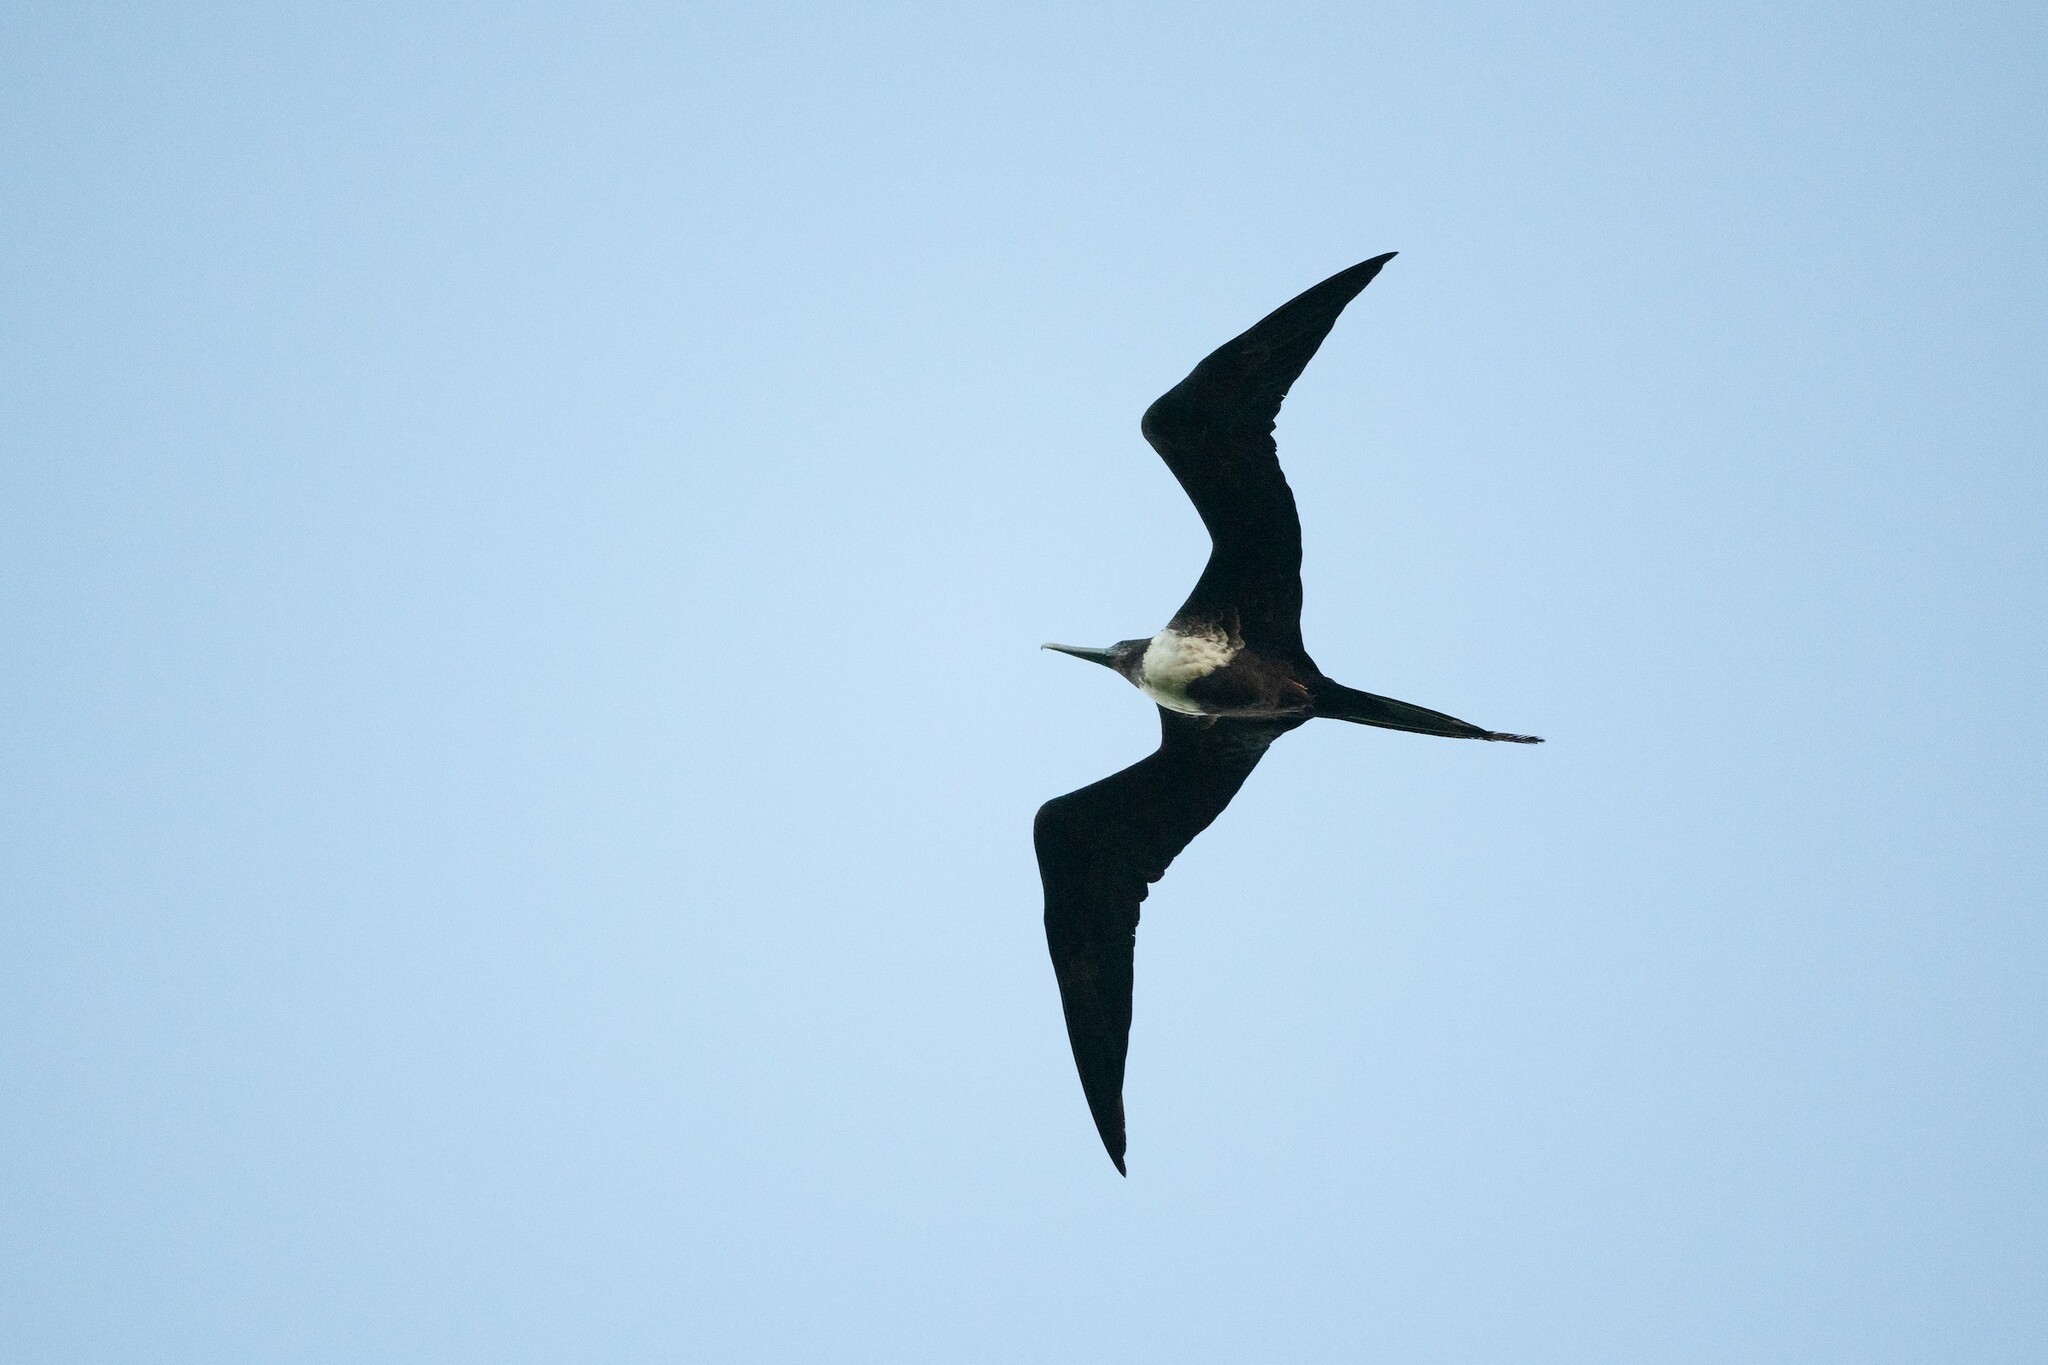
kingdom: Animalia
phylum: Chordata
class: Aves
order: Suliformes
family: Fregatidae
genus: Fregata
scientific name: Fregata magnificens
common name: Magnificent frigatebird
